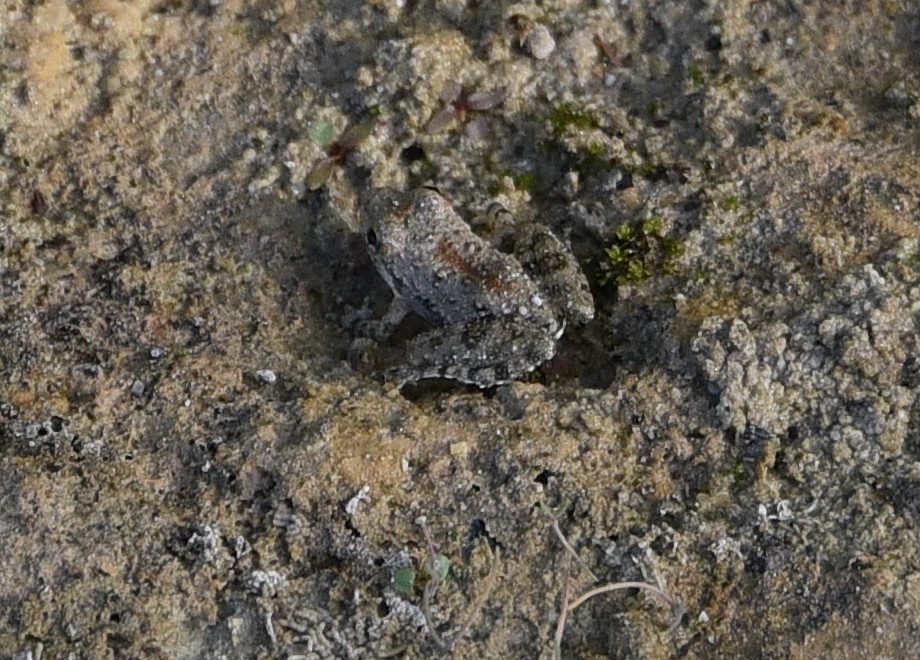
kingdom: Animalia
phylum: Chordata
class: Amphibia
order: Anura
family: Hylidae
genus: Acris
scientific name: Acris blanchardi
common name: Blanchard's cricket frog
